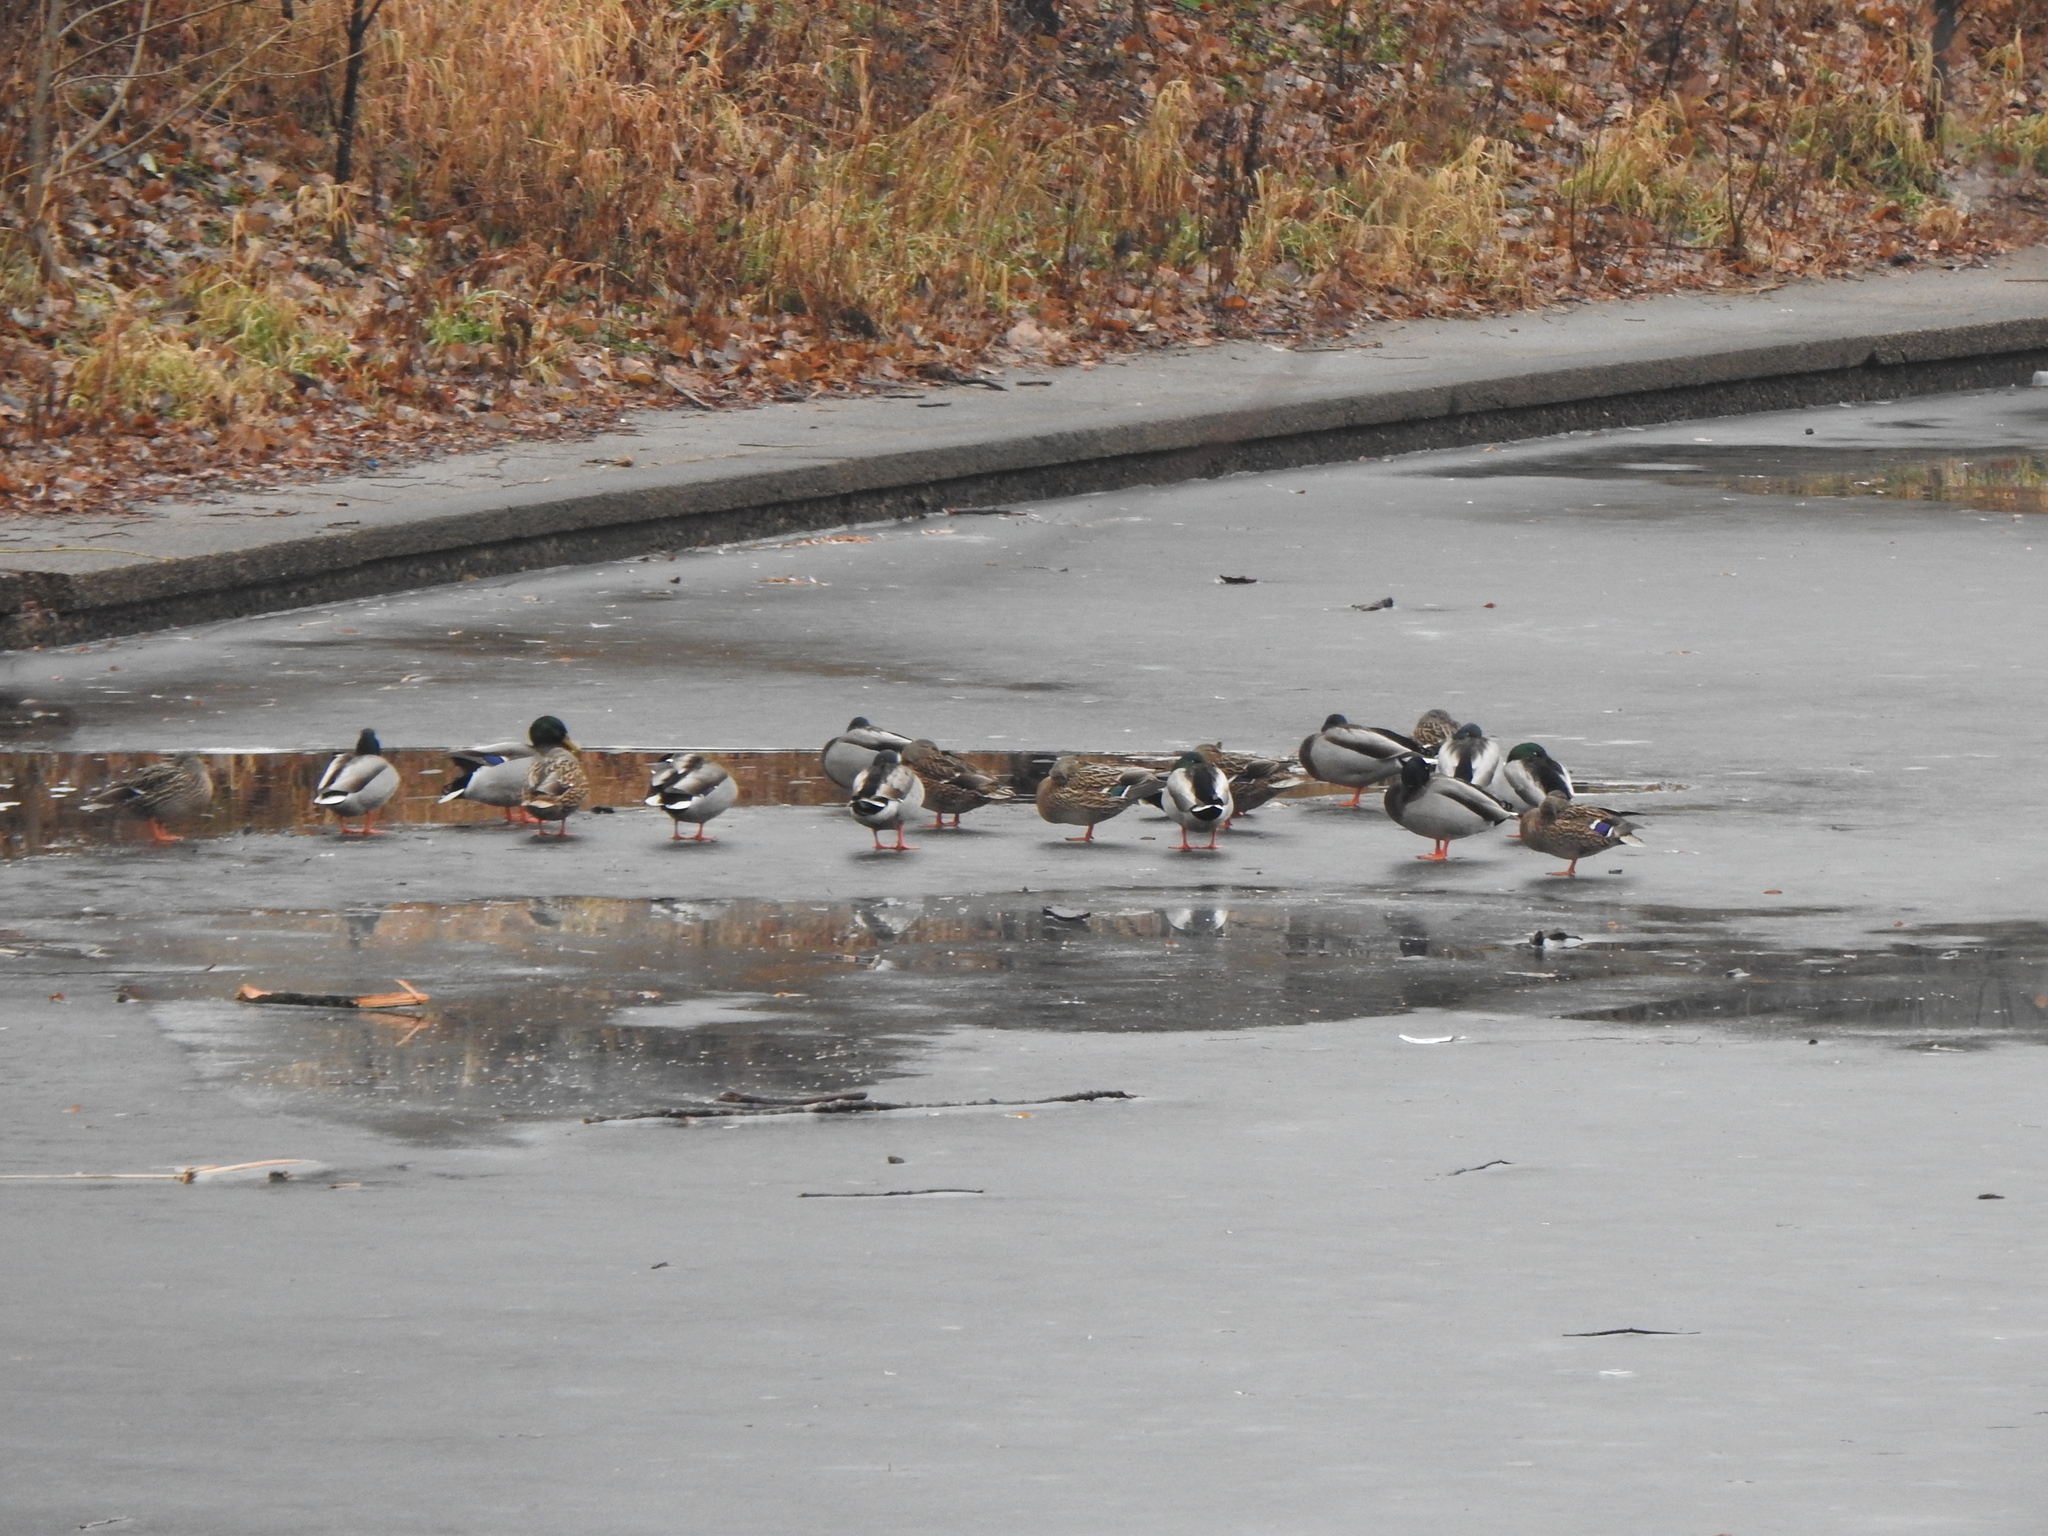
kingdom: Animalia
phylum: Chordata
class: Aves
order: Anseriformes
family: Anatidae
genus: Anas
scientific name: Anas platyrhynchos
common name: Mallard
